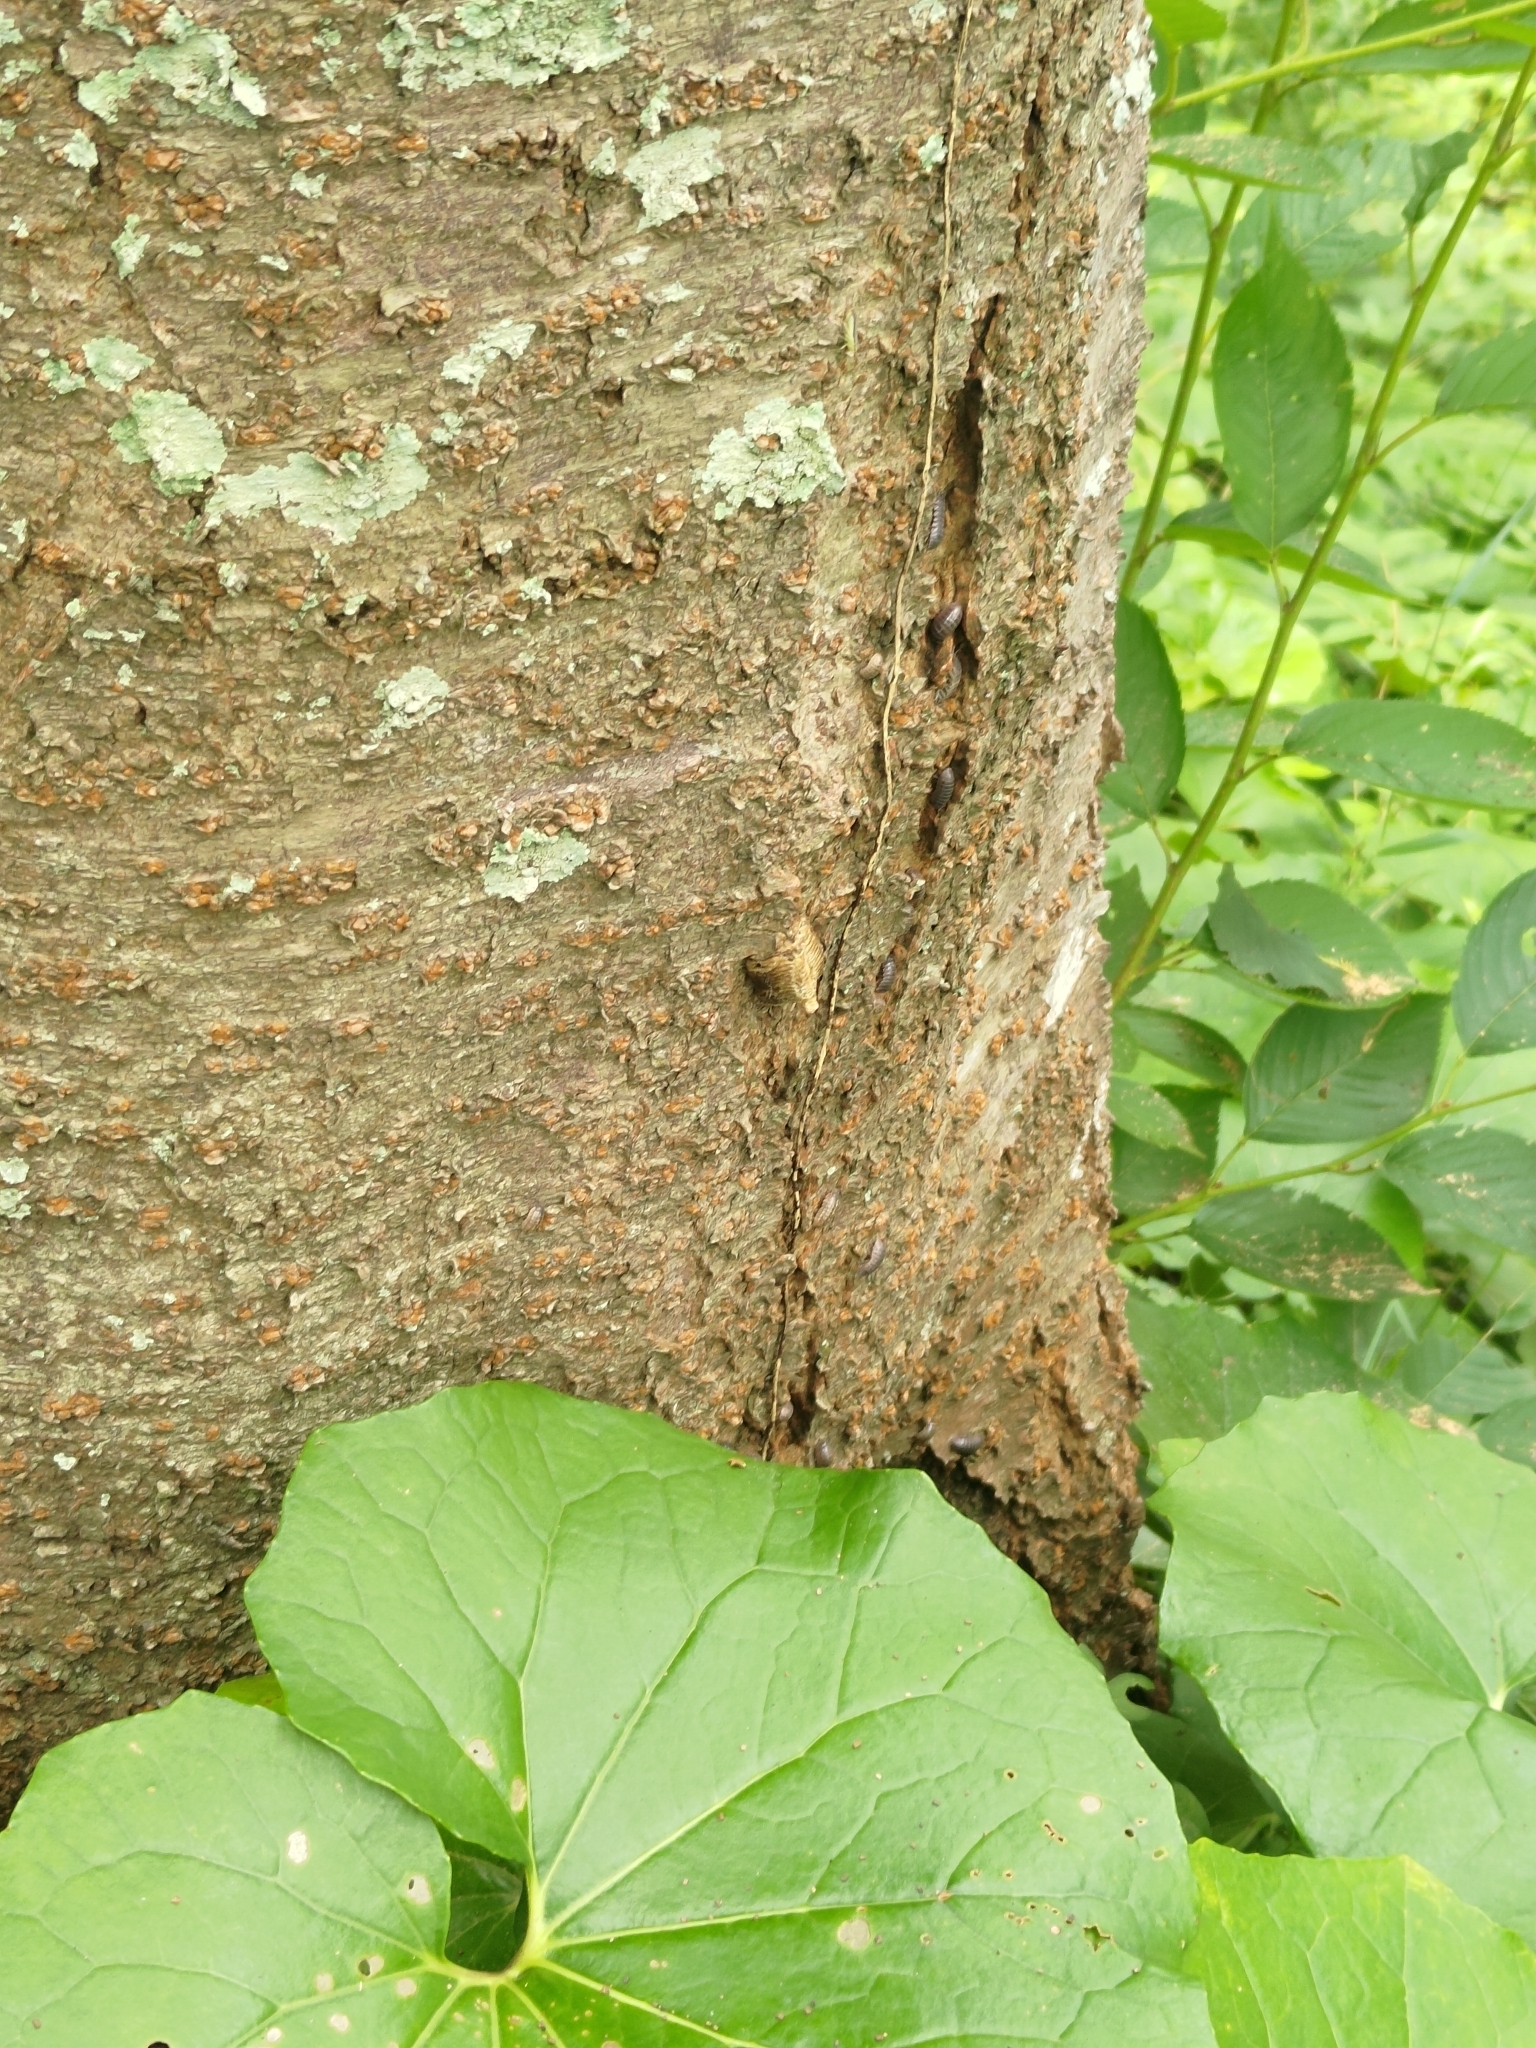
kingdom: Animalia
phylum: Arthropoda
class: Insecta
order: Mantodea
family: Mantidae
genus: Hierodula
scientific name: Hierodula patellifera
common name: Asian mantis
